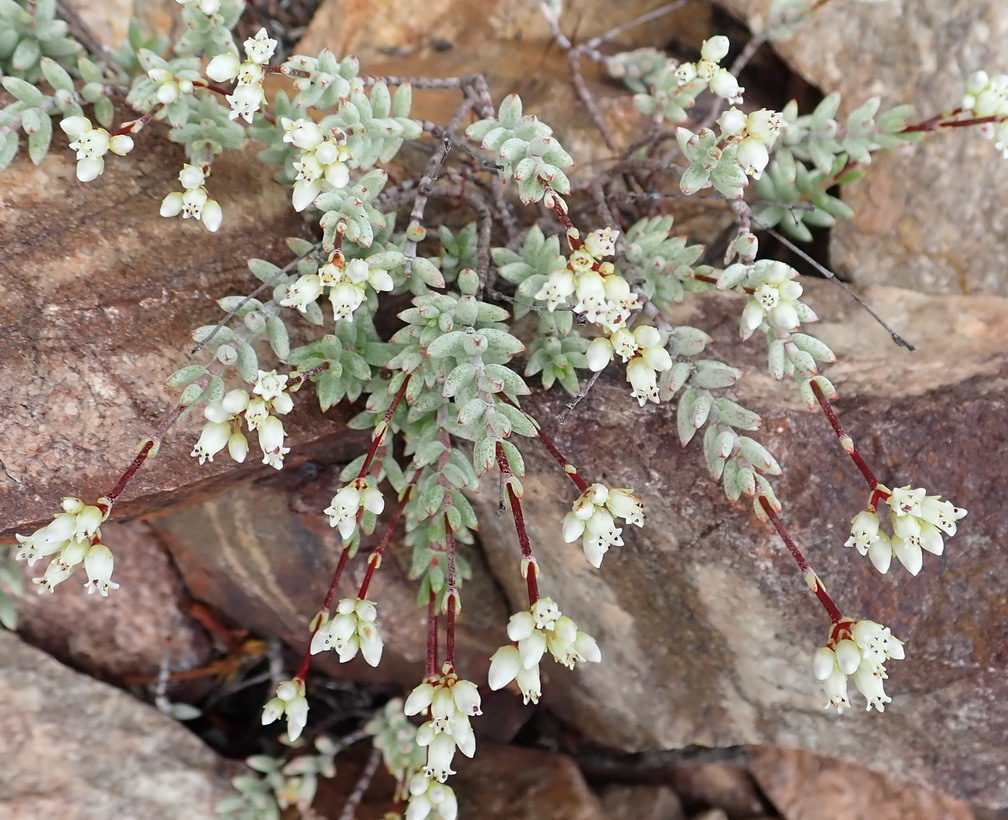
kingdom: Plantae
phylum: Tracheophyta
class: Magnoliopsida
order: Saxifragales
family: Crassulaceae
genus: Crassula
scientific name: Crassula biplanata
